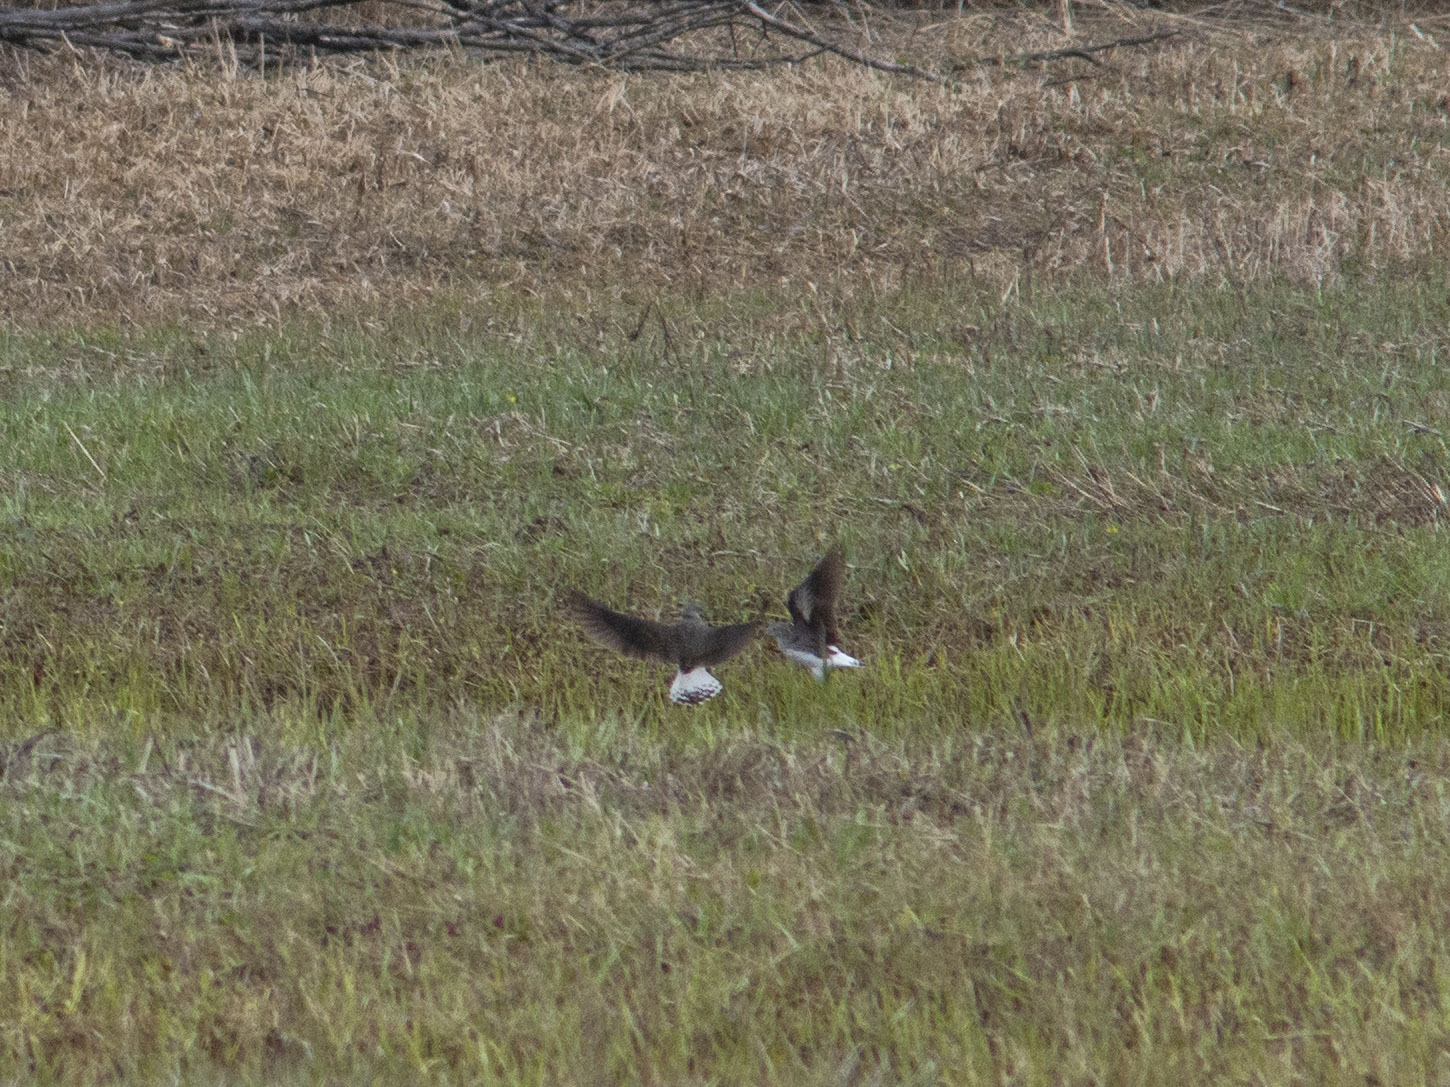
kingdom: Animalia
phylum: Chordata
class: Aves
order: Charadriiformes
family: Scolopacidae
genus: Tringa
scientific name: Tringa ochropus
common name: Green sandpiper
